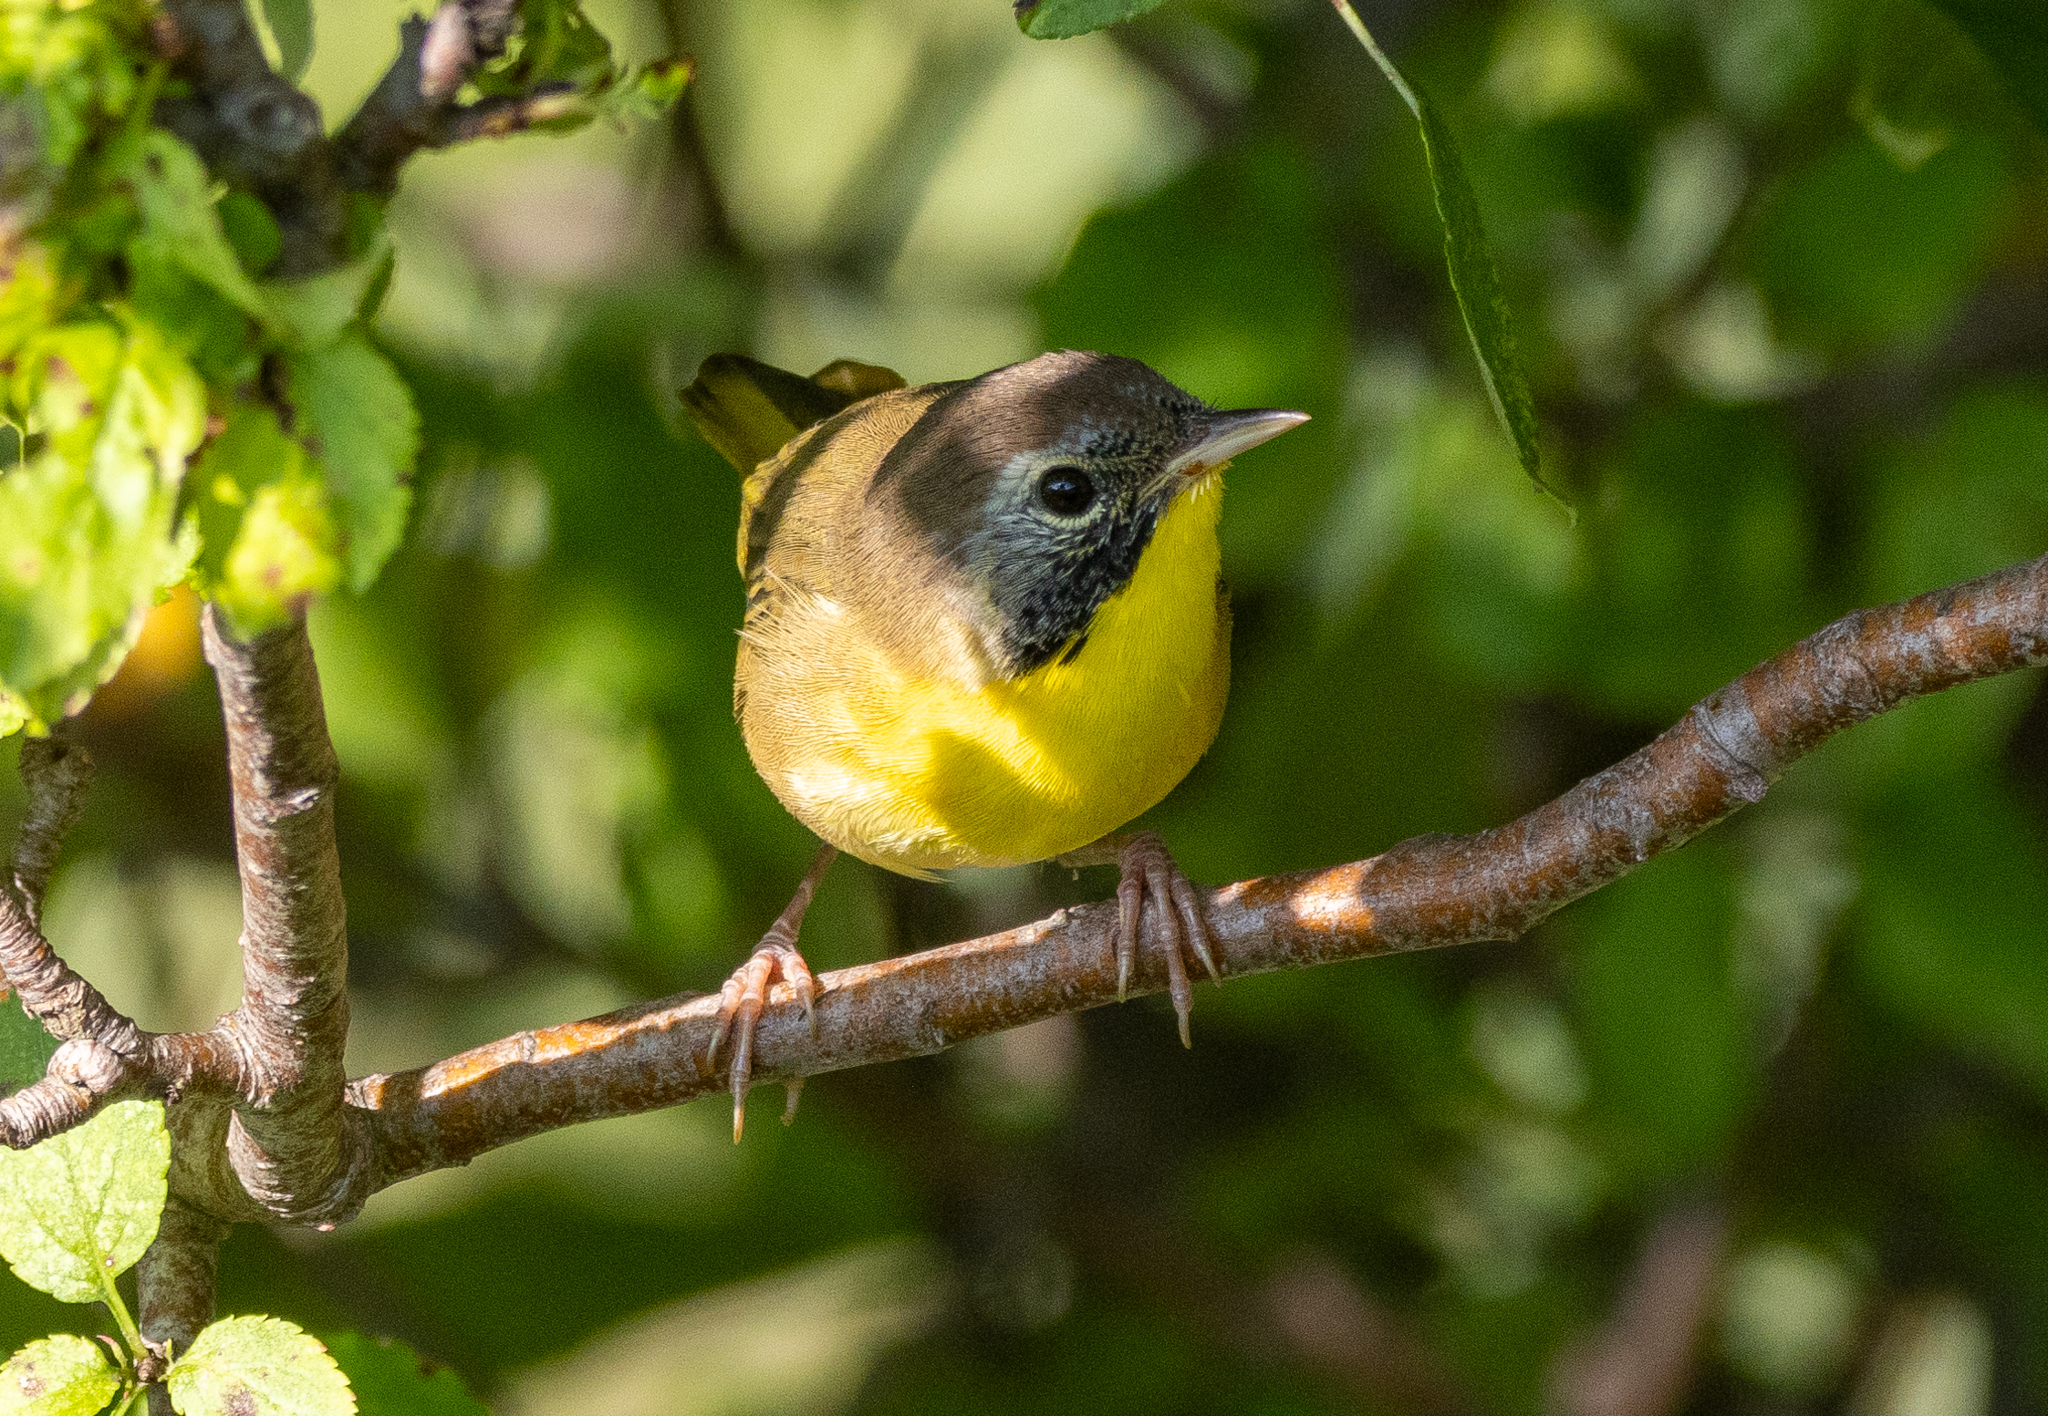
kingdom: Animalia
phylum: Chordata
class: Aves
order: Passeriformes
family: Parulidae
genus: Geothlypis
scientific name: Geothlypis trichas
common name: Common yellowthroat
